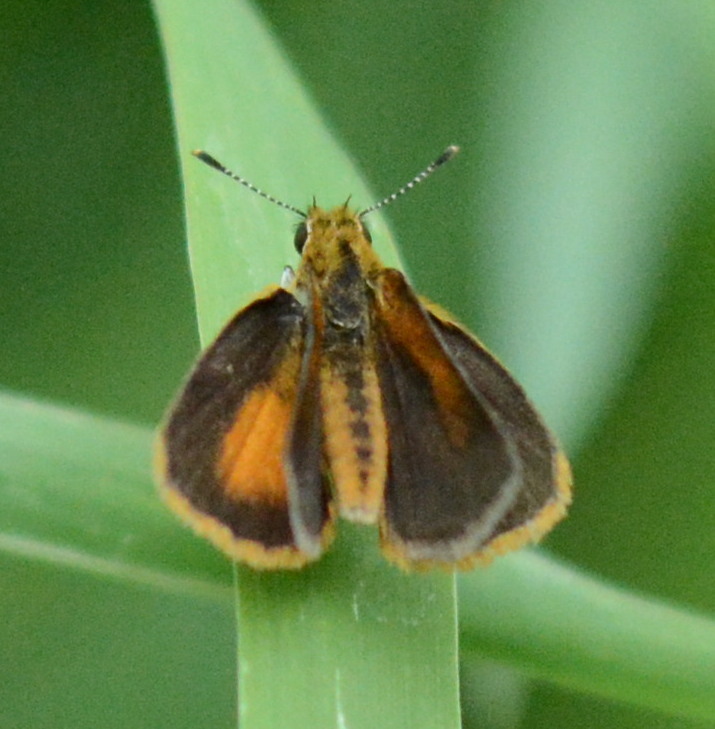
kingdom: Animalia
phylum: Arthropoda
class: Insecta
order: Lepidoptera
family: Hesperiidae
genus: Ancyloxypha
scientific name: Ancyloxypha numitor
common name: Least skipper
